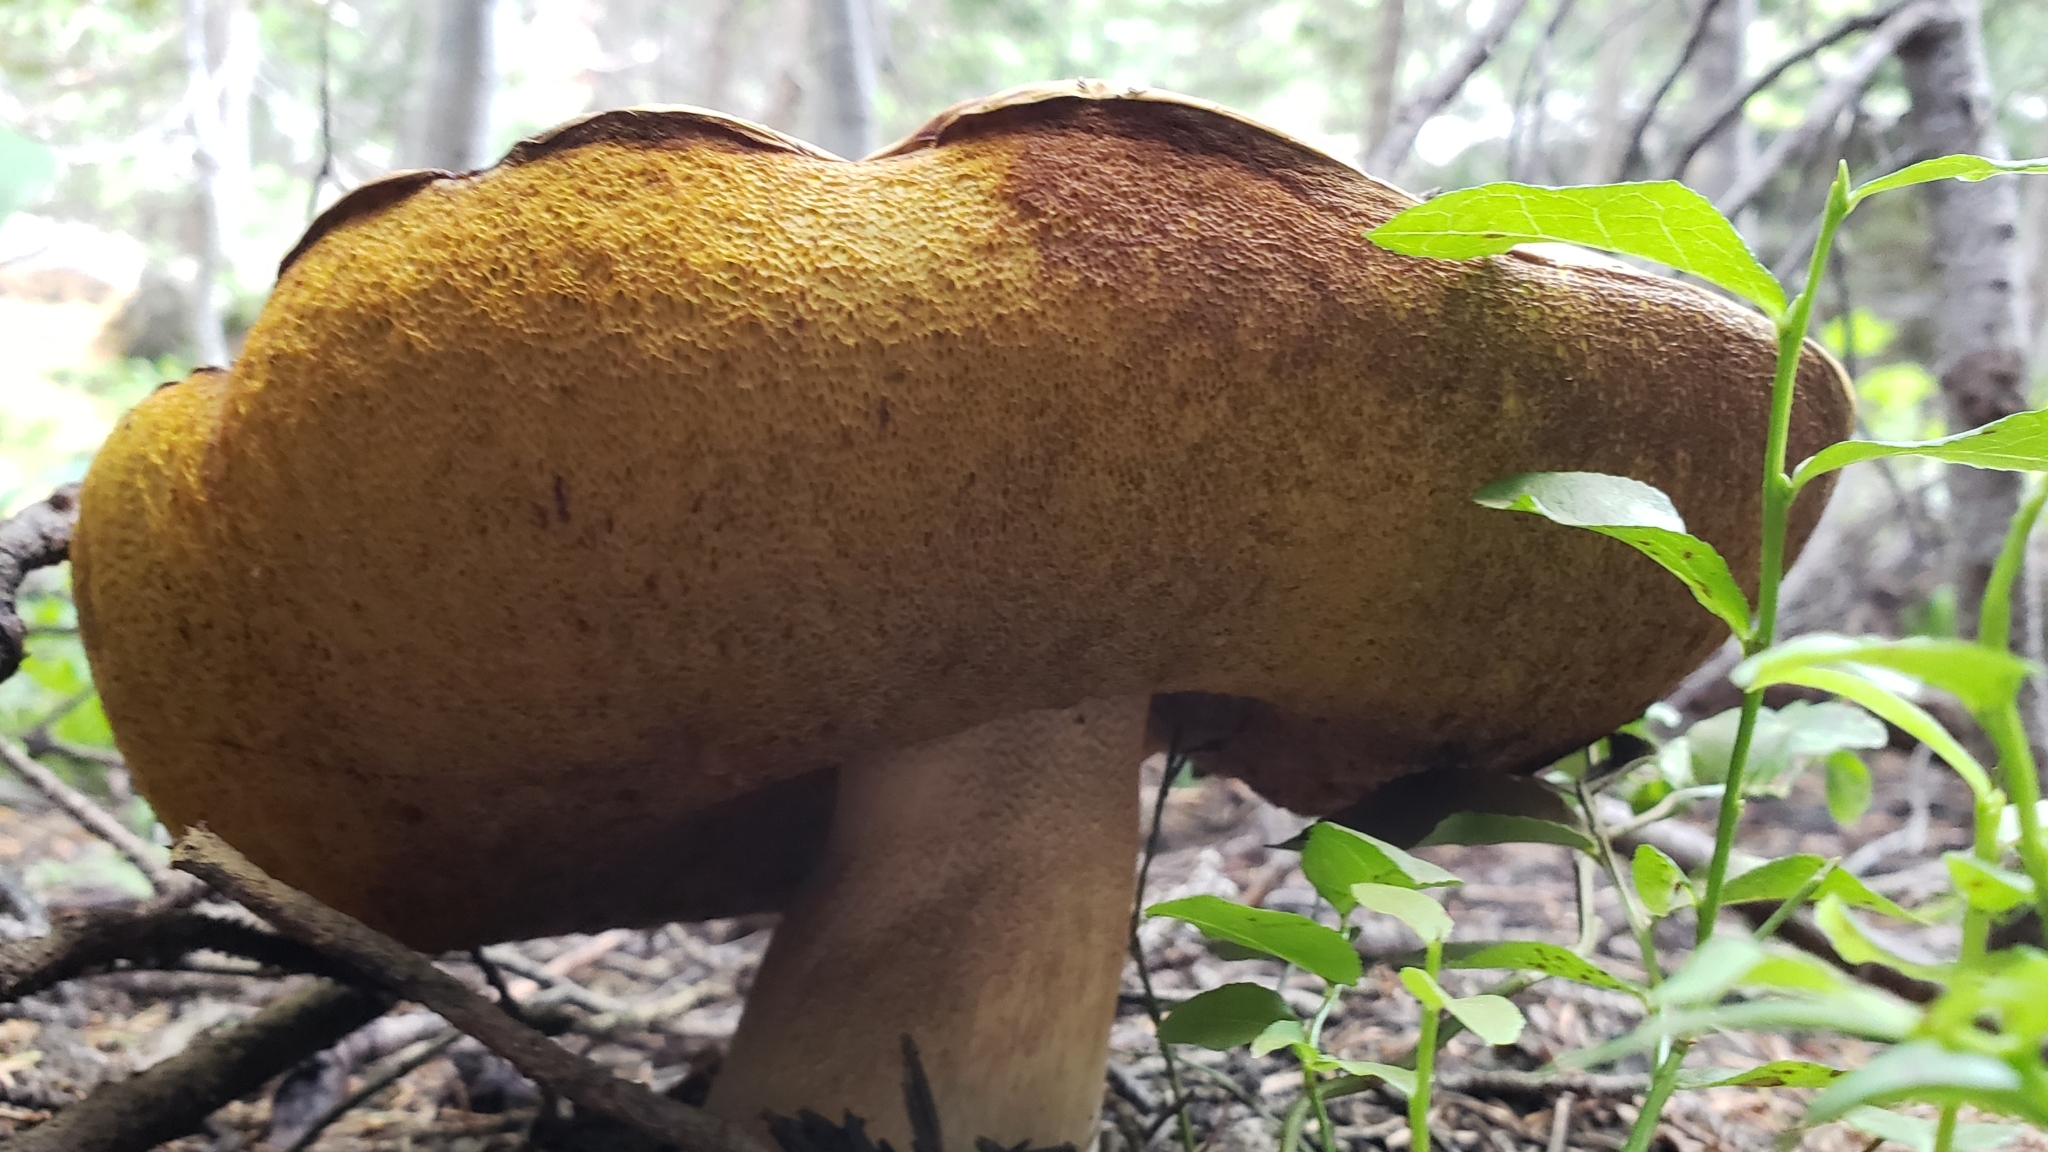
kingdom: Fungi
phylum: Basidiomycota
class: Agaricomycetes
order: Boletales
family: Boletaceae
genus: Boletus
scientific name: Boletus rubriceps
